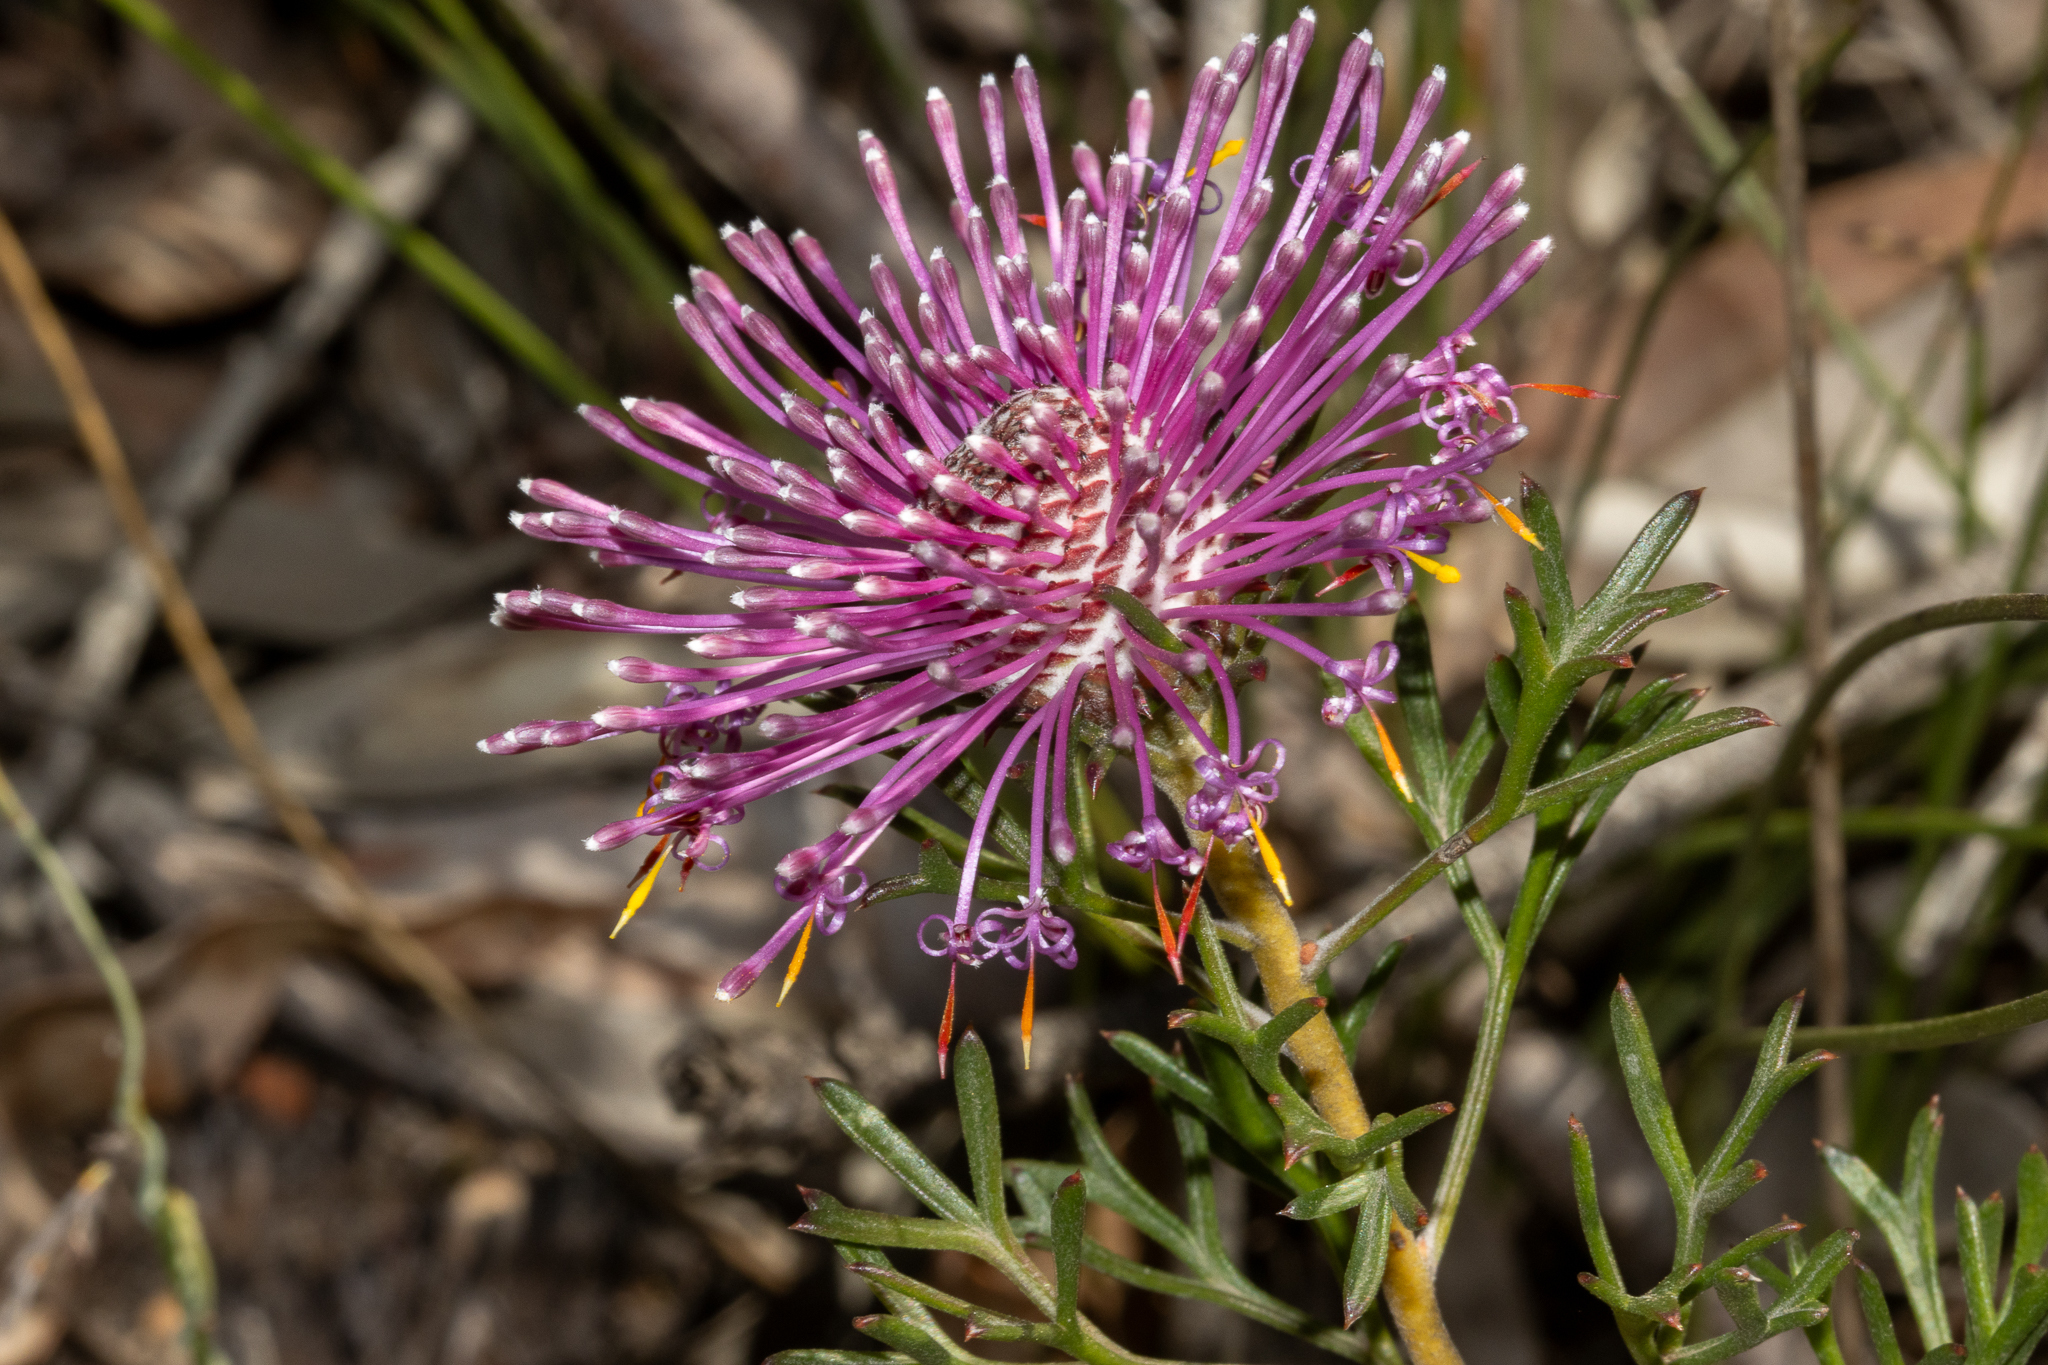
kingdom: Plantae
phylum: Tracheophyta
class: Magnoliopsida
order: Proteales
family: Proteaceae
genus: Isopogon
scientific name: Isopogon dubius
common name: Pincushion-coneflower
